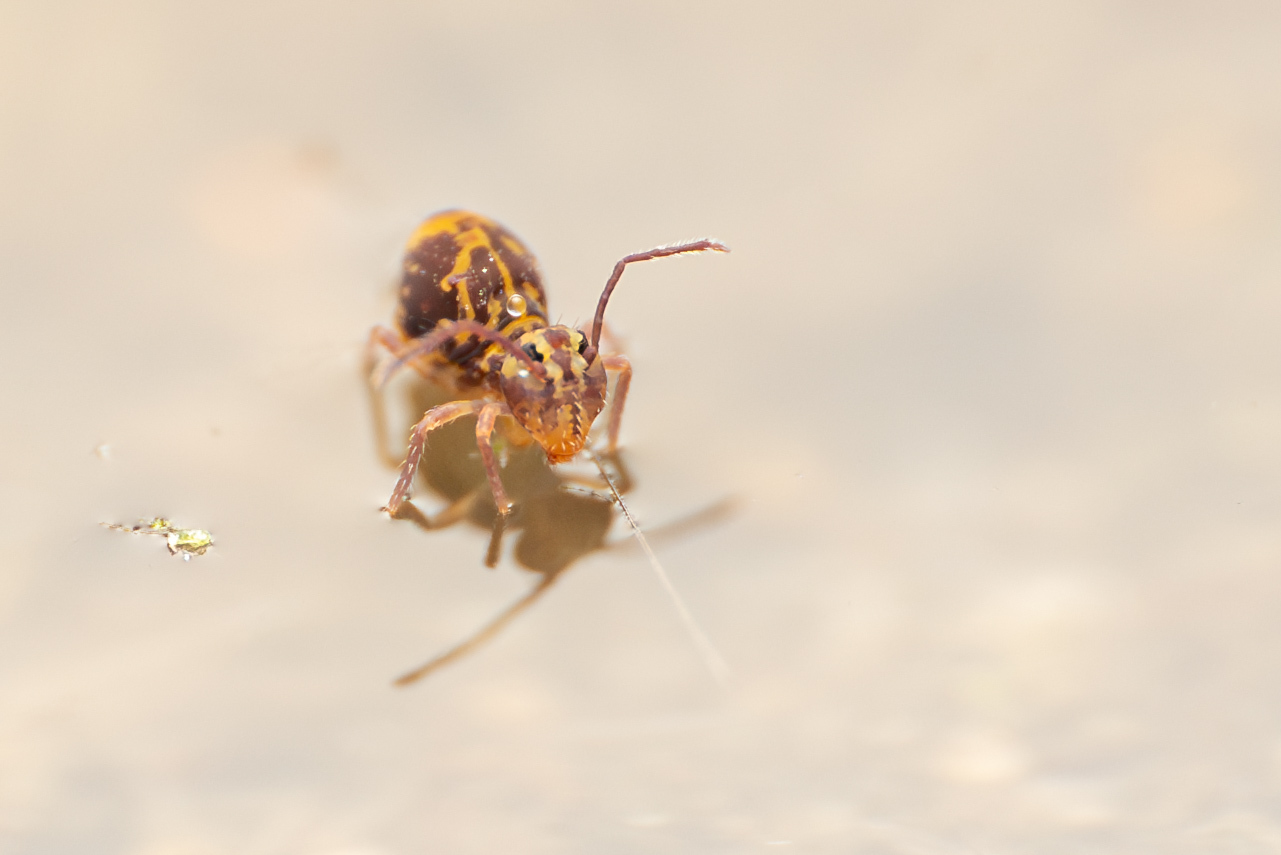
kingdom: Animalia
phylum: Arthropoda
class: Collembola
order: Symphypleona
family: Dicyrtomidae
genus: Dicyrtomina
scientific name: Dicyrtomina minuta
